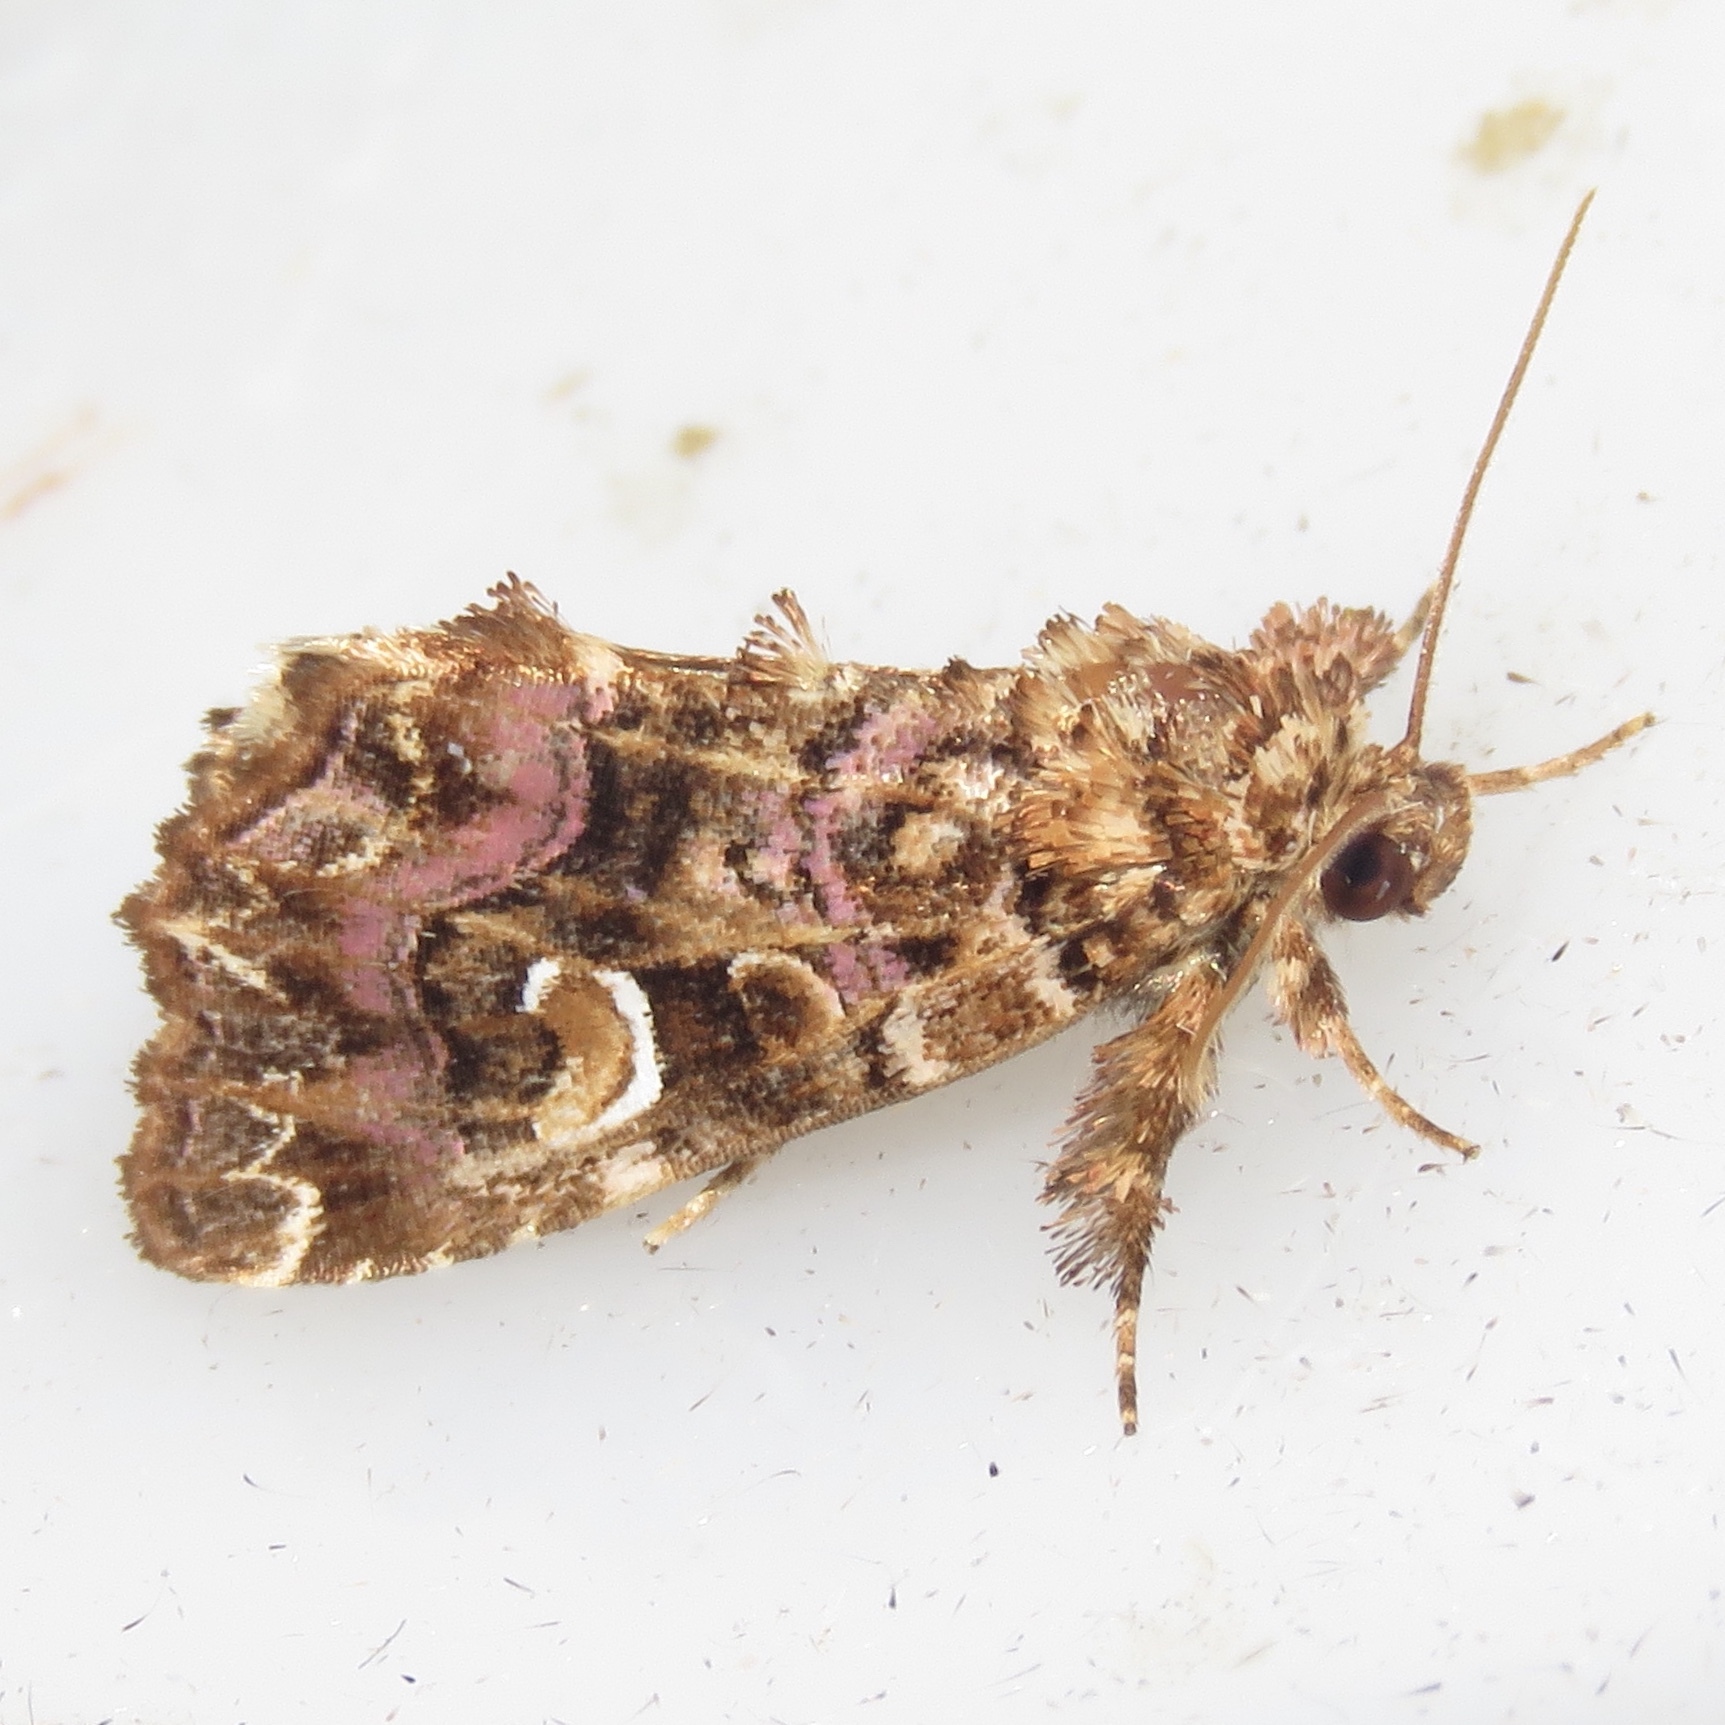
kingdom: Animalia
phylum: Arthropoda
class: Insecta
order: Lepidoptera
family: Noctuidae
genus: Callopistria
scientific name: Callopistria mollissima
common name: Pink-shaded fern moth
